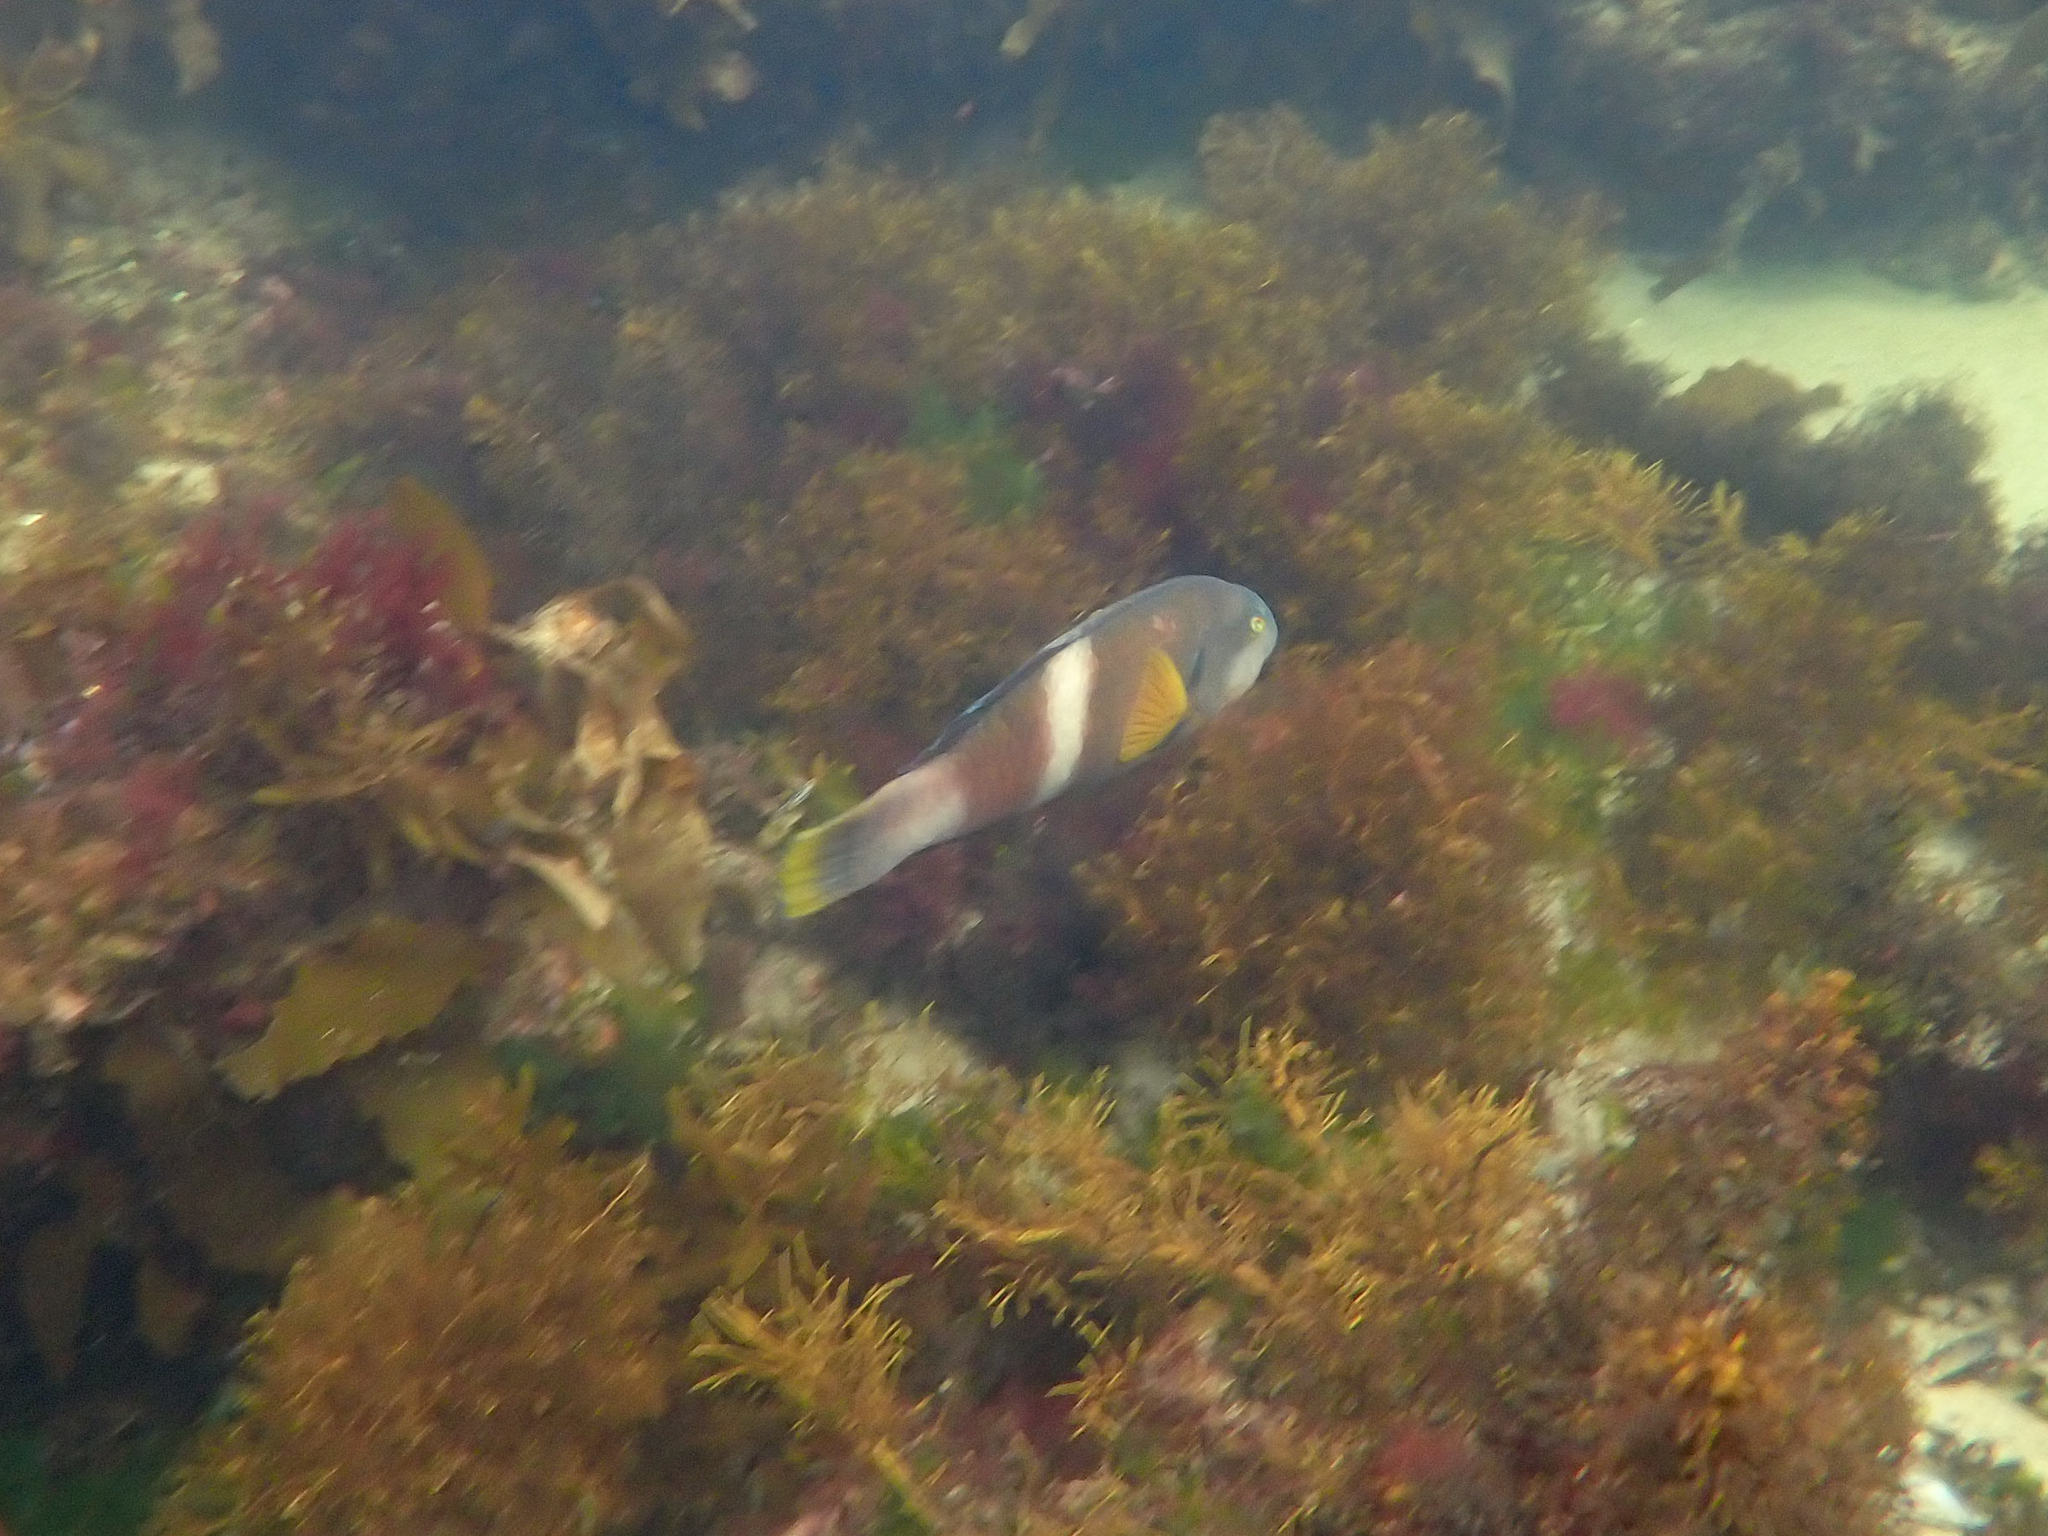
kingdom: Animalia
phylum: Chordata
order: Perciformes
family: Labridae
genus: Notolabrus
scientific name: Notolabrus tetricus
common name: Blue-throated parrotfish
